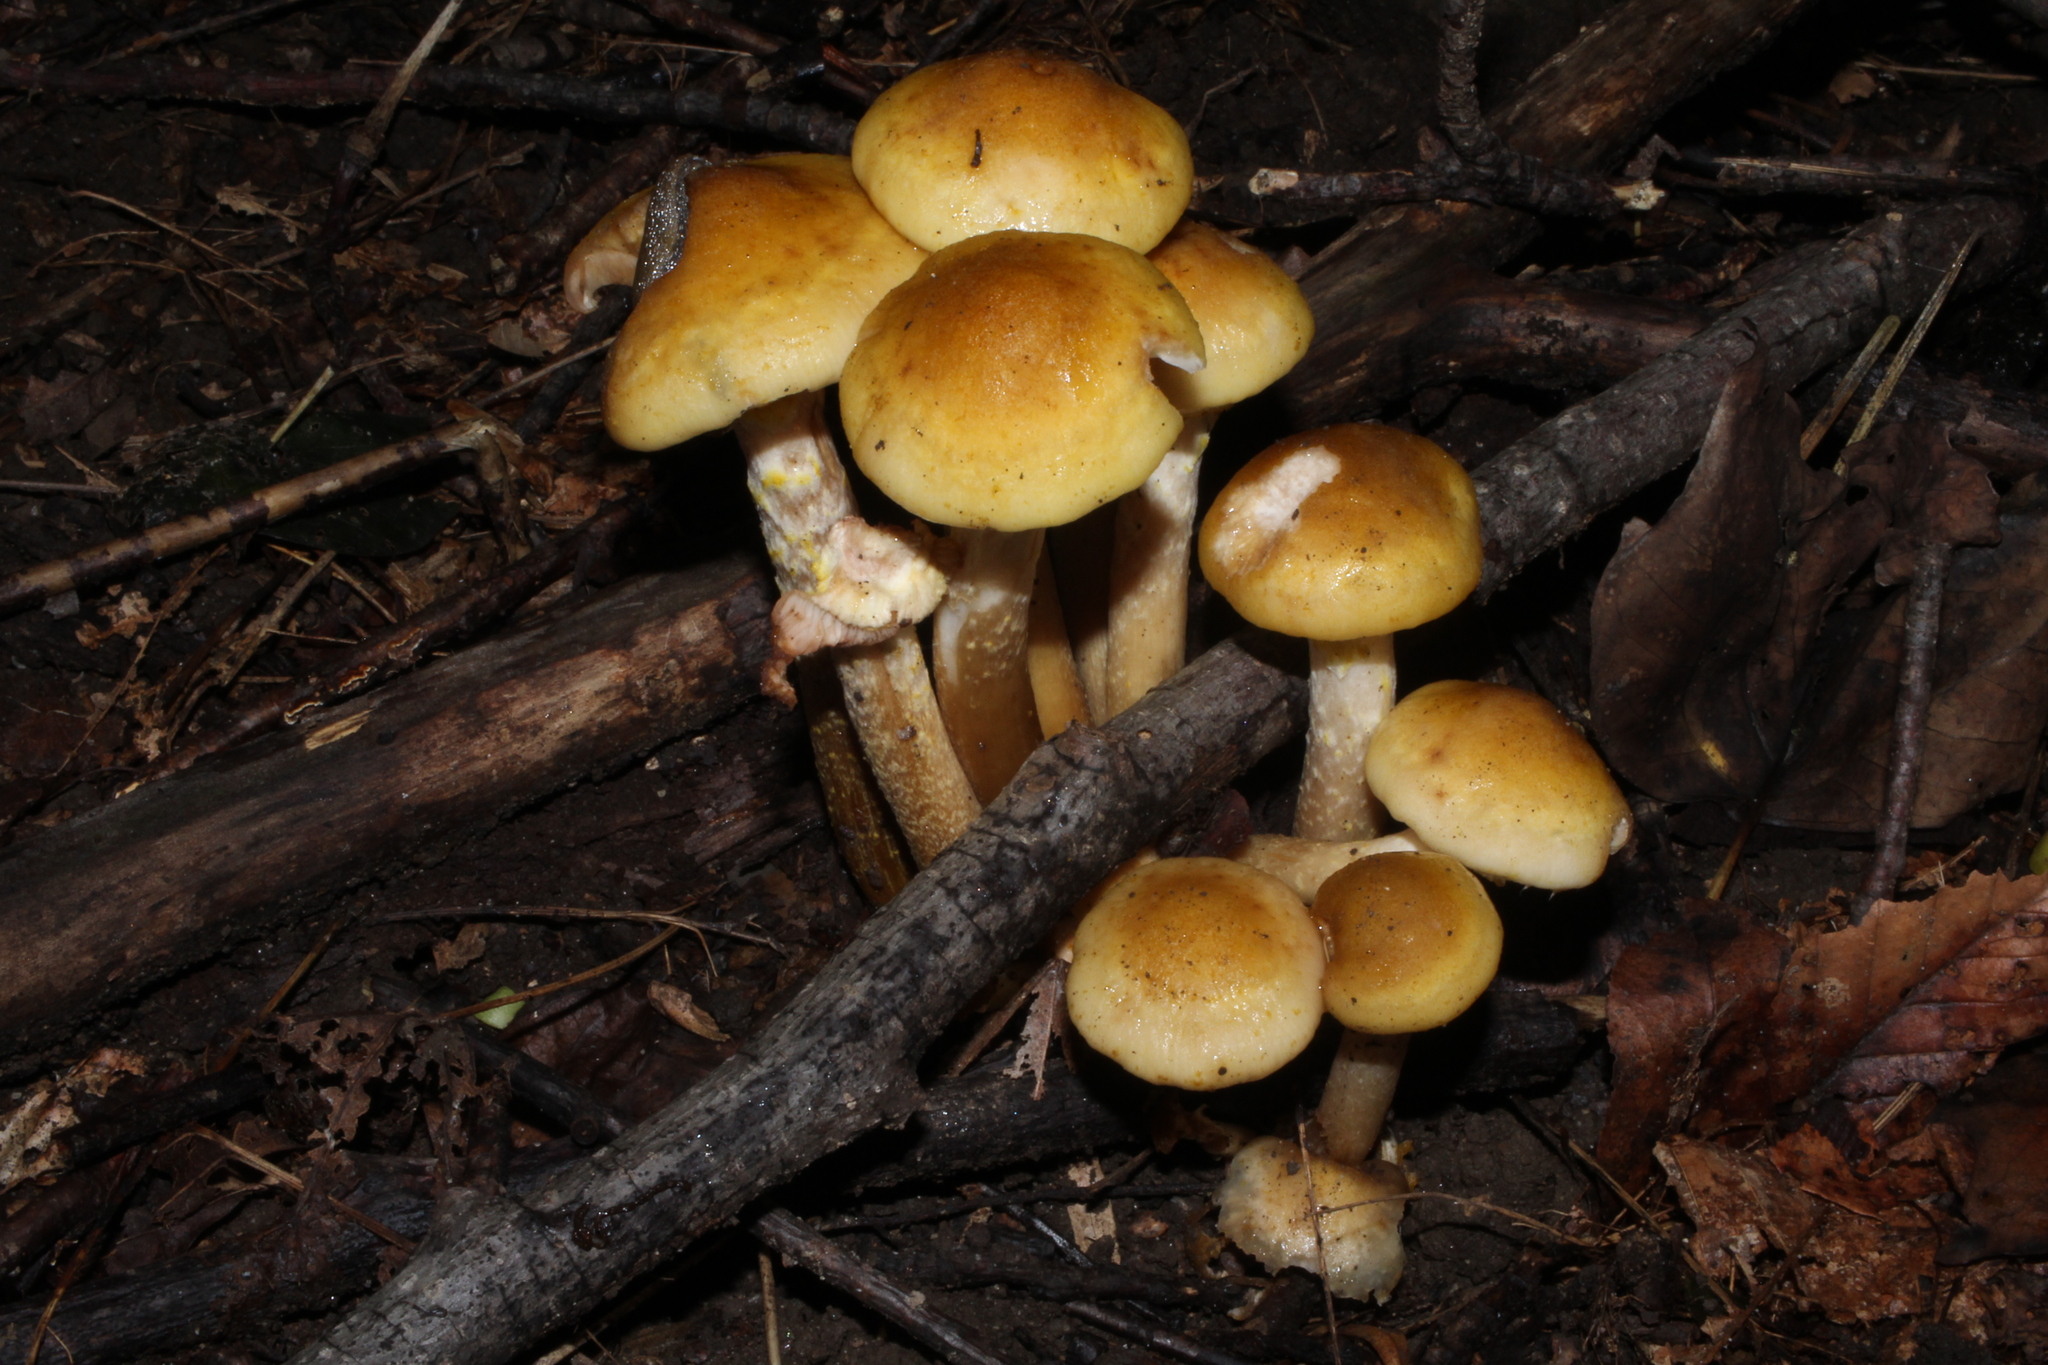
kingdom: Fungi
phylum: Basidiomycota
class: Agaricomycetes
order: Agaricales
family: Physalacriaceae
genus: Armillaria
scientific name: Armillaria mellea
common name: Honey fungus
